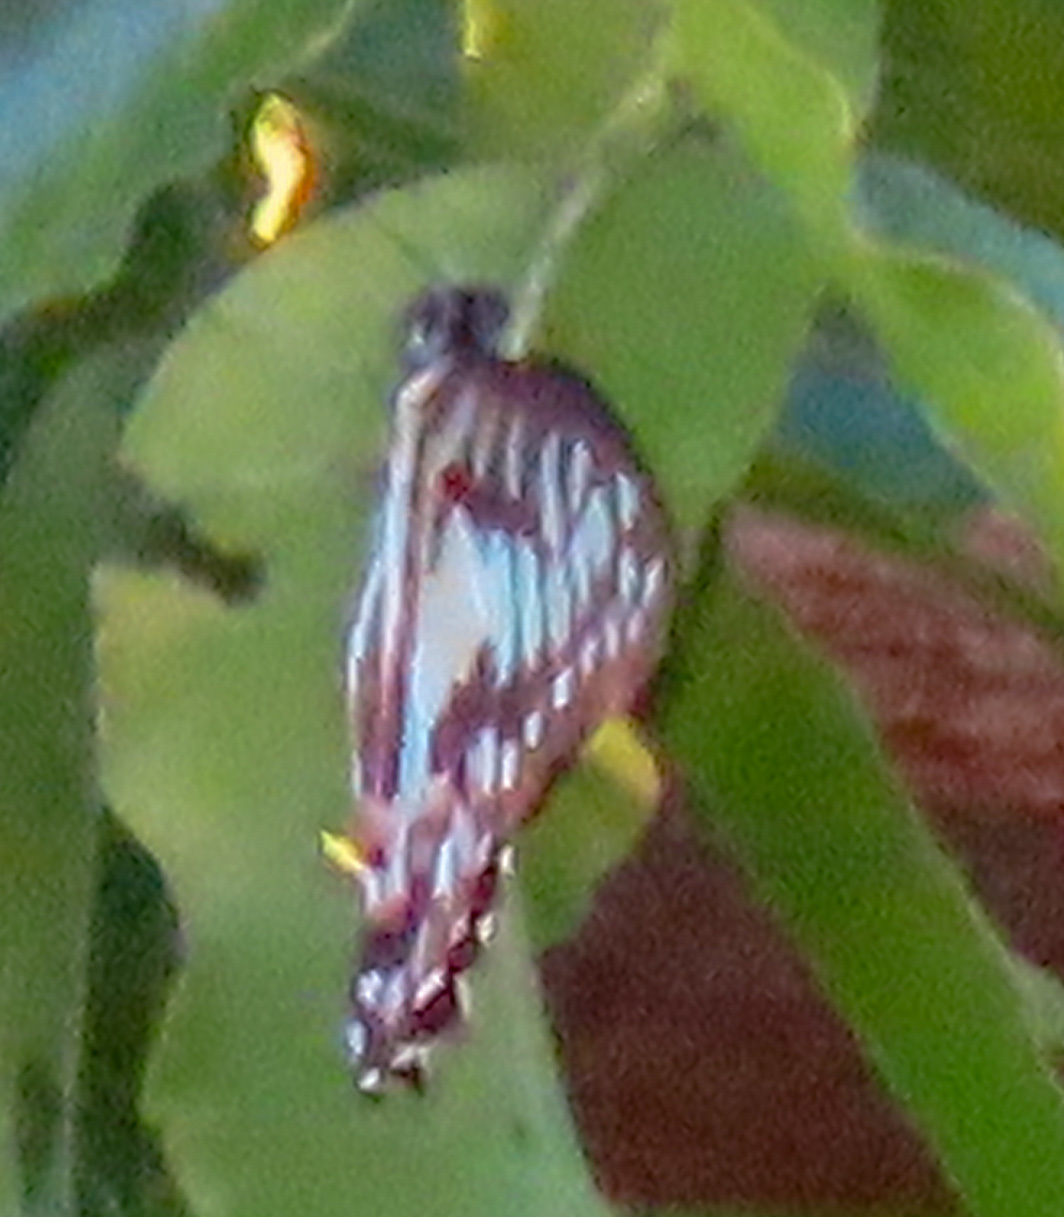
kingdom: Animalia
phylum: Arthropoda
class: Insecta
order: Lepidoptera
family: Papilionidae
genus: Graphium
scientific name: Graphium doson
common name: Common jay
